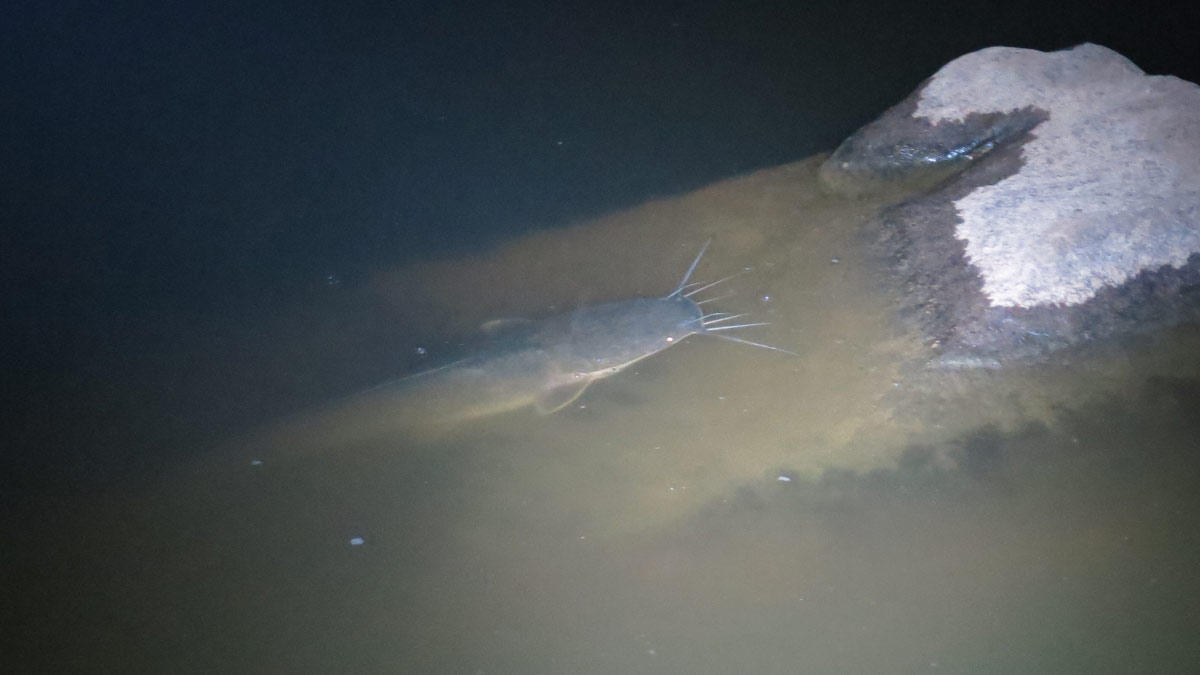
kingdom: Animalia
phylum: Chordata
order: Siluriformes
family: Clariidae
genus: Clarias
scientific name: Clarias gariepinus
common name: African catfish
